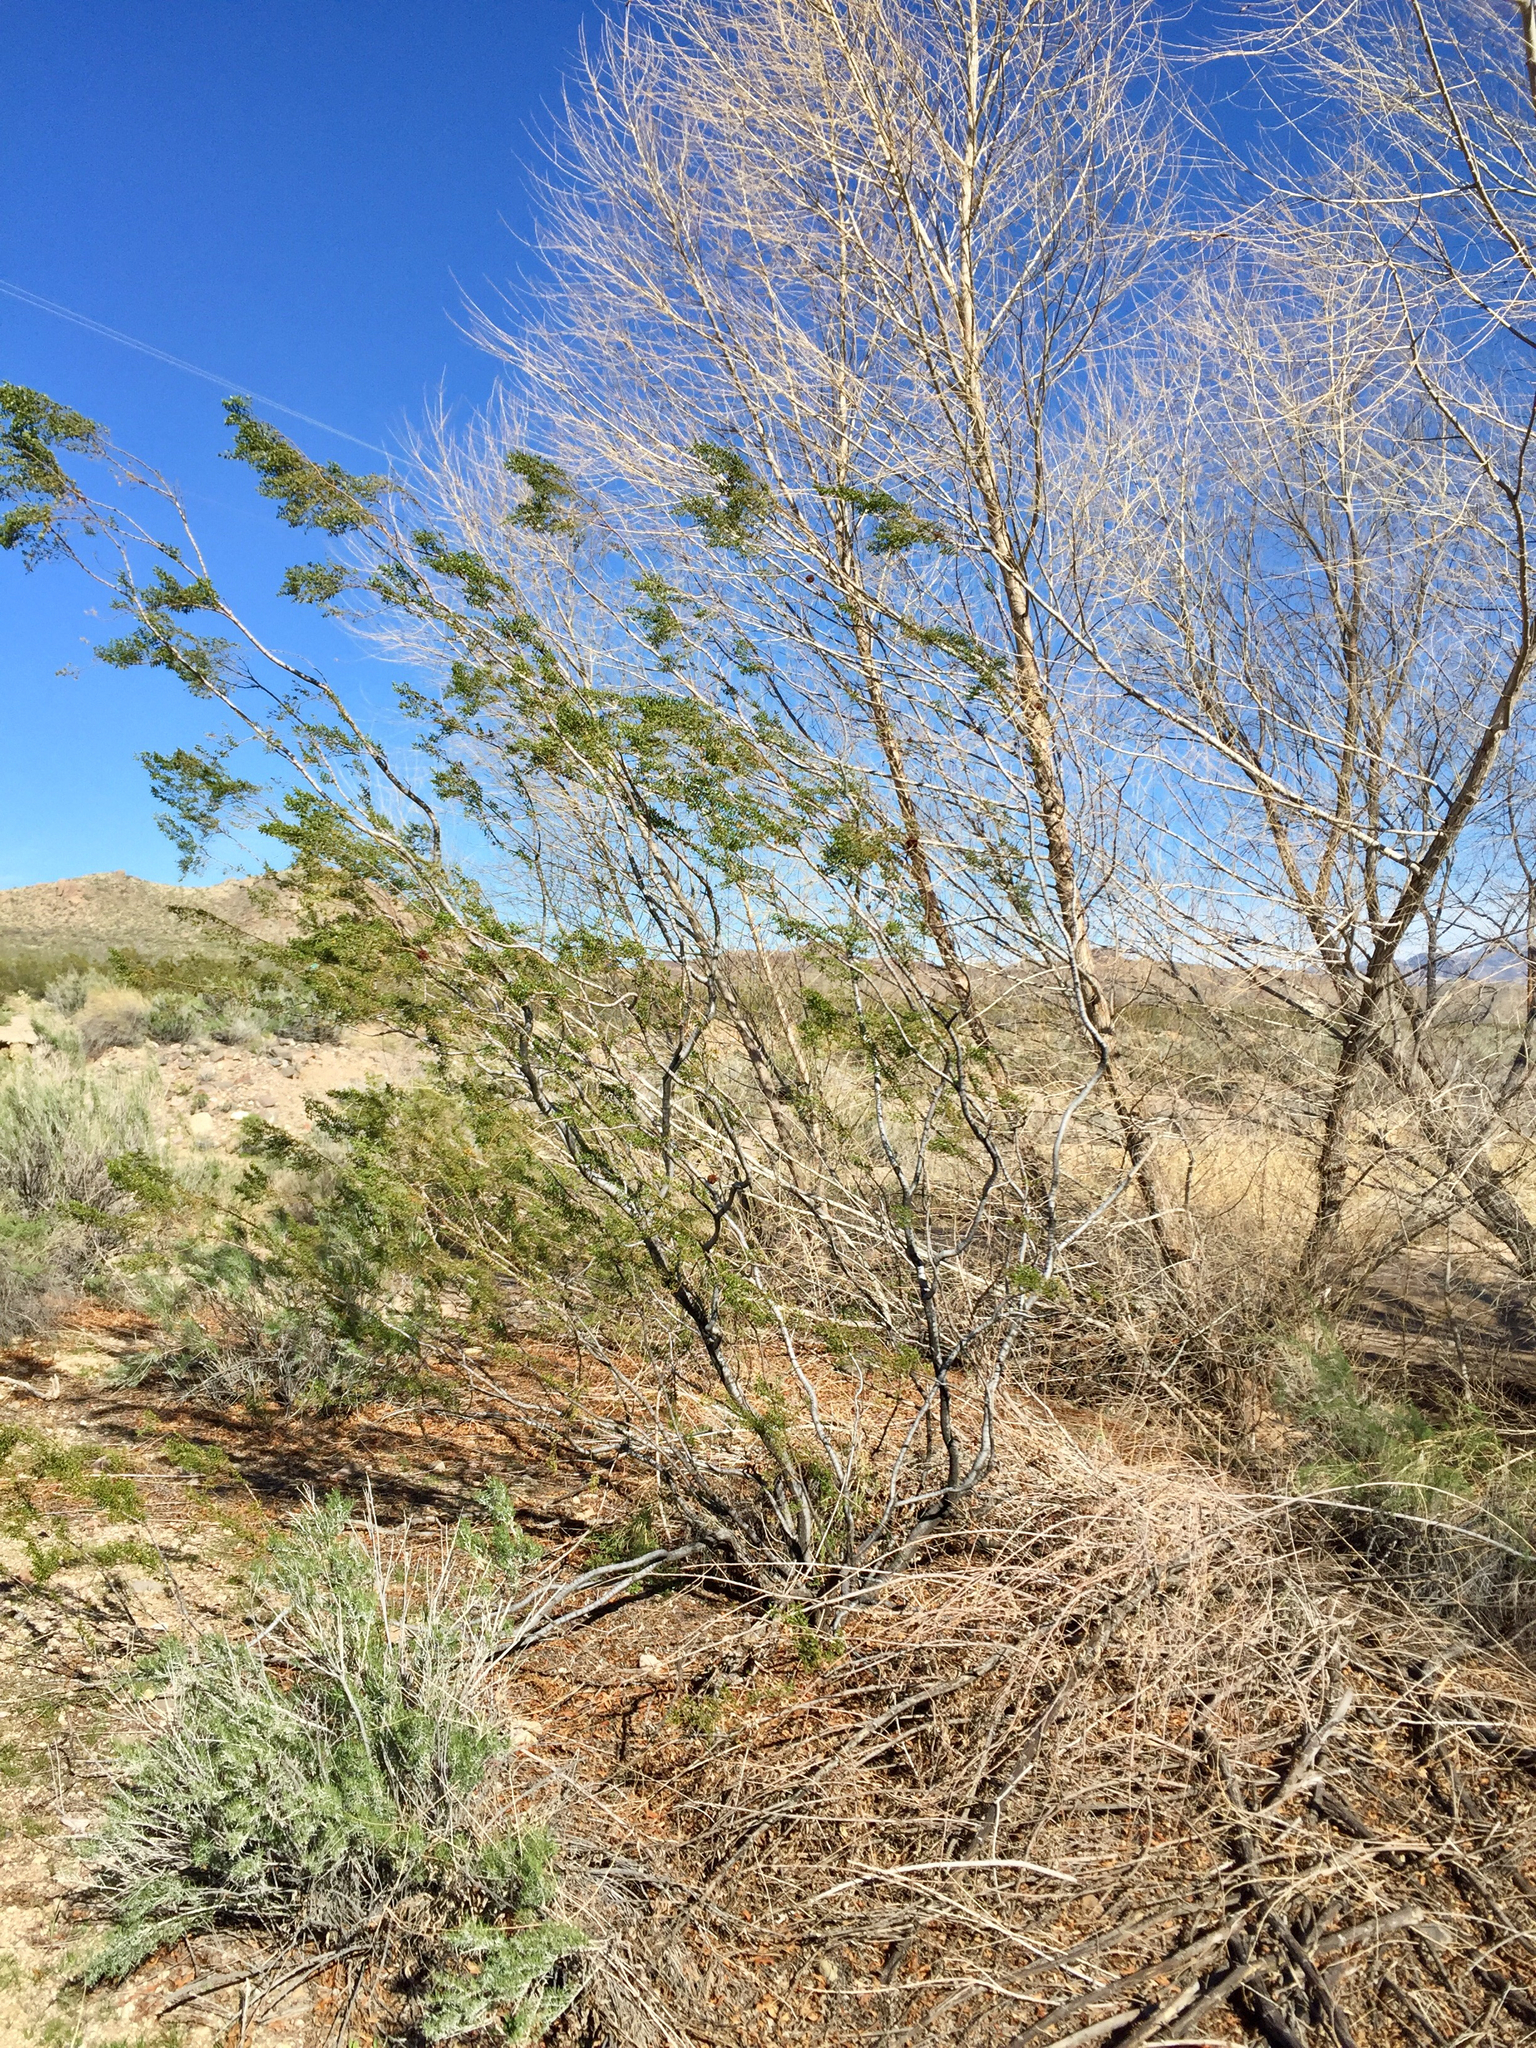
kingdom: Plantae
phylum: Tracheophyta
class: Magnoliopsida
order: Zygophyllales
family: Zygophyllaceae
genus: Larrea
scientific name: Larrea tridentata
